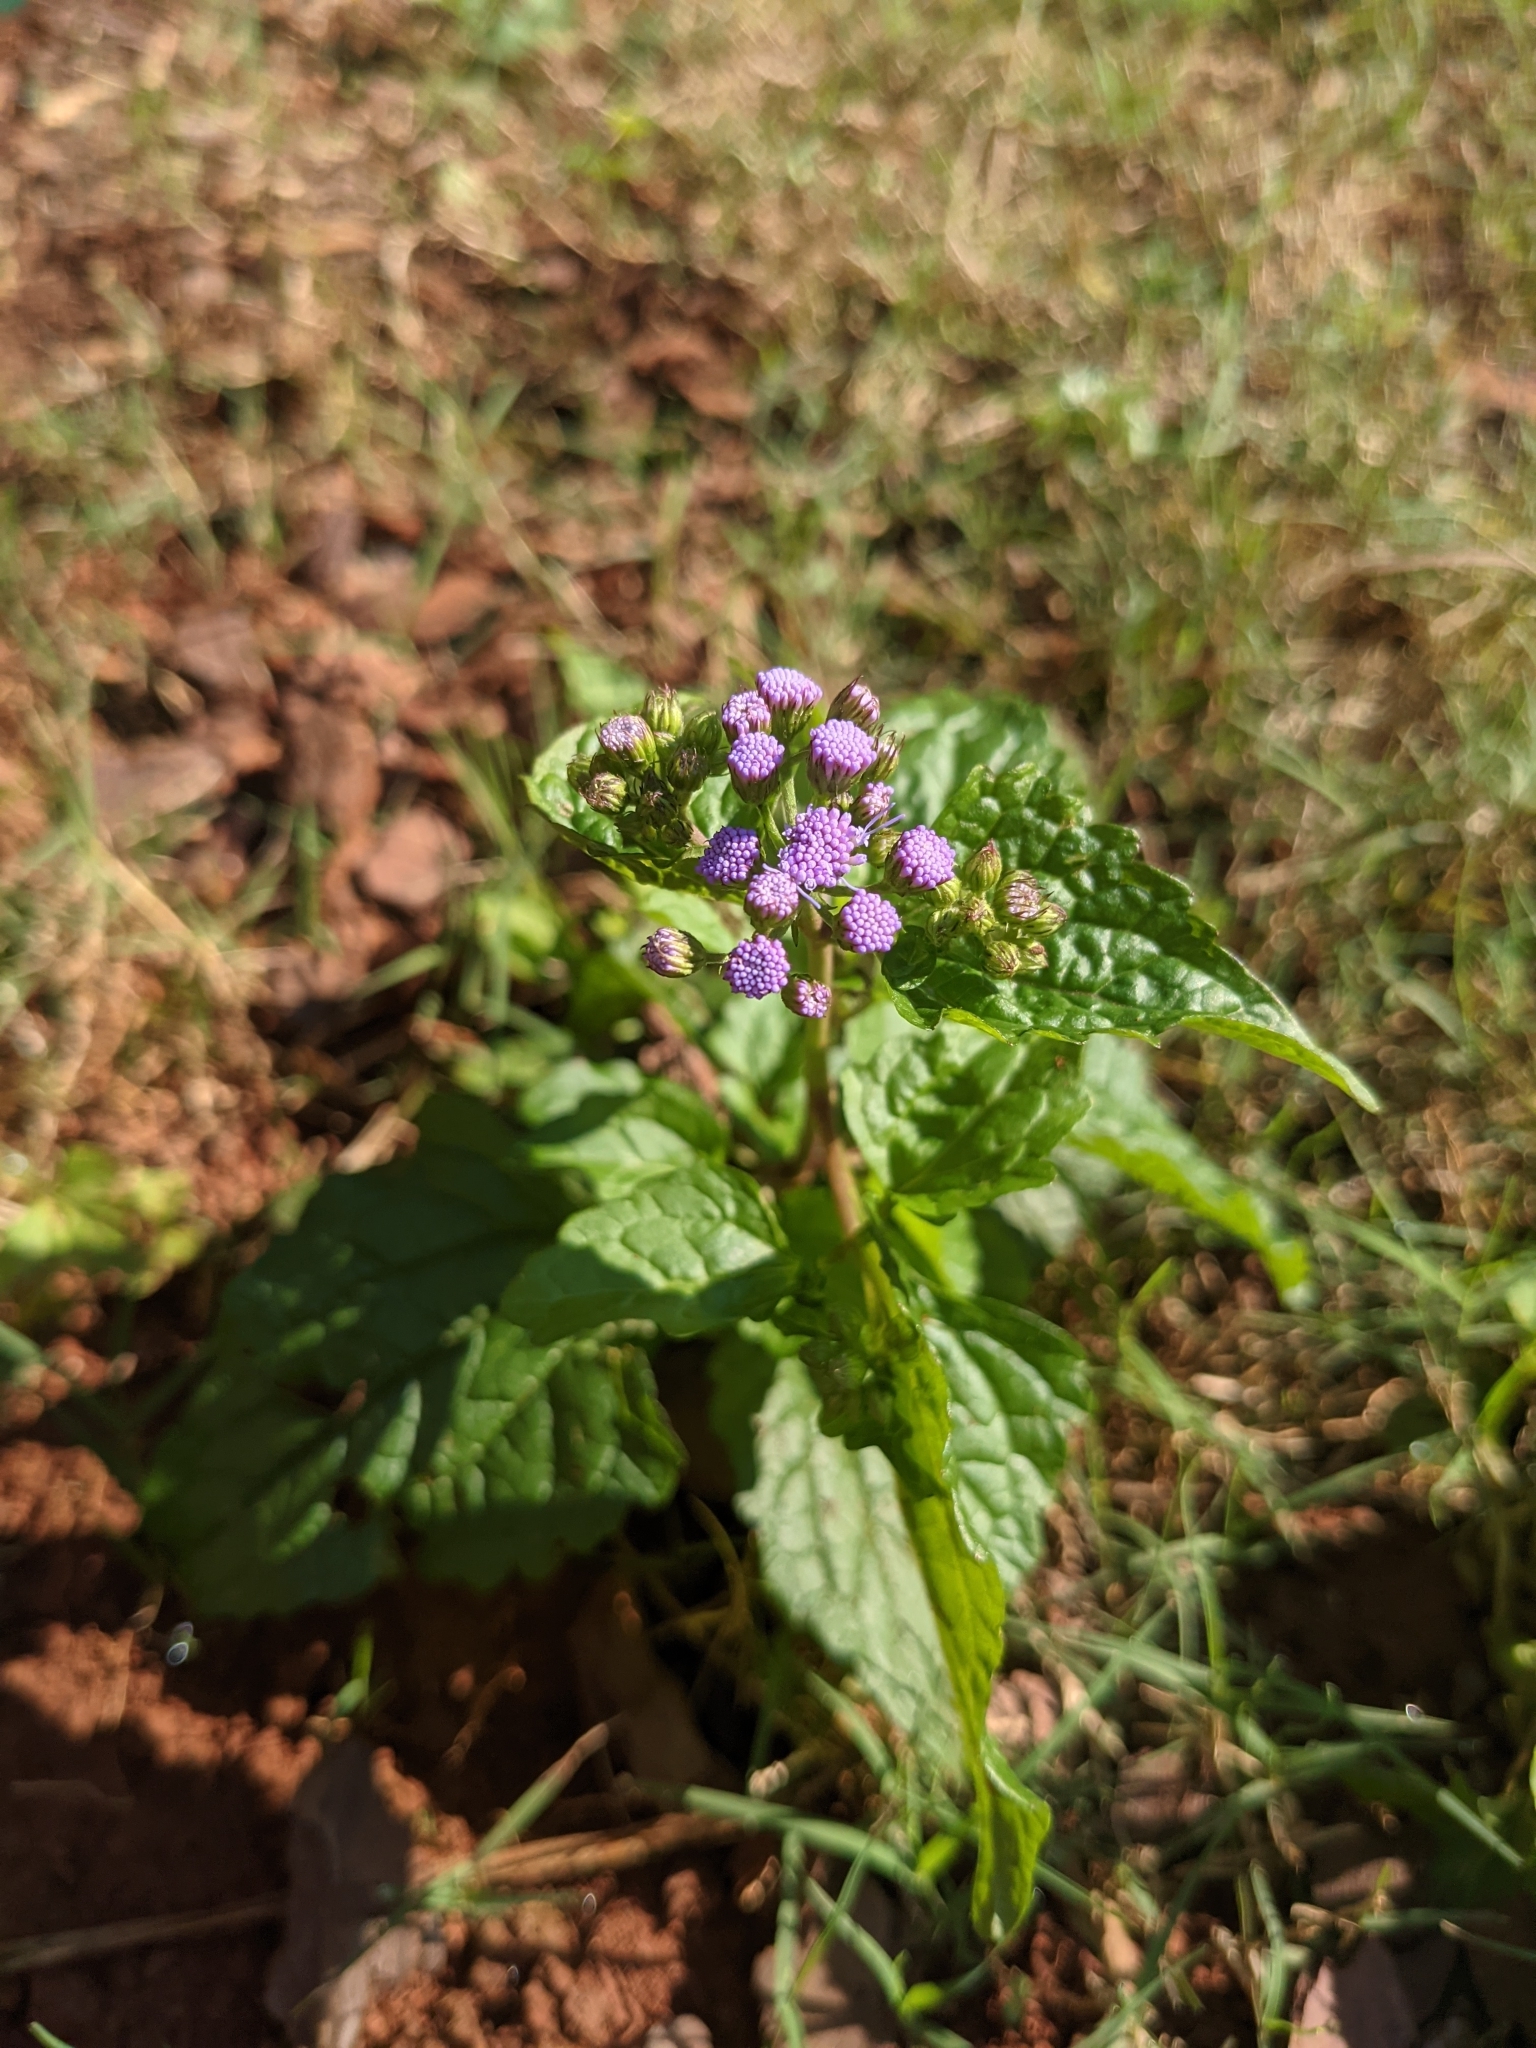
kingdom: Plantae
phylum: Tracheophyta
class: Magnoliopsida
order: Asterales
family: Asteraceae
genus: Conoclinium
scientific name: Conoclinium coelestinum
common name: Blue mistflower
